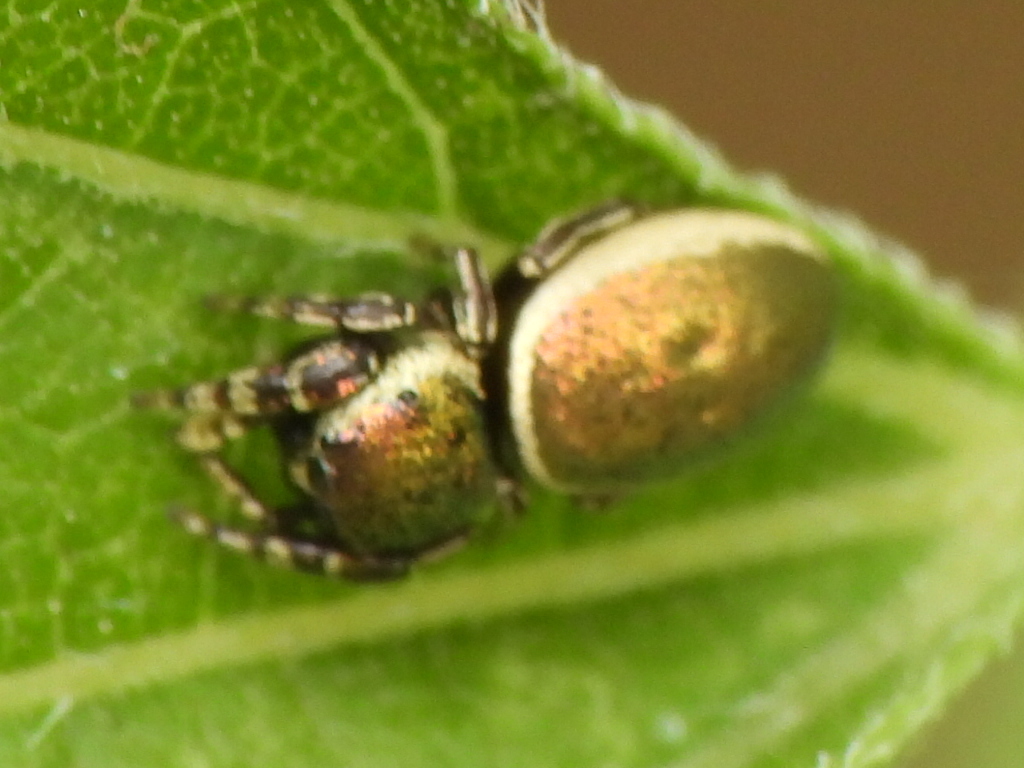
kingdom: Animalia
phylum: Arthropoda
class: Arachnida
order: Araneae
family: Salticidae
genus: Sassacus
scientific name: Sassacus papenhoei
